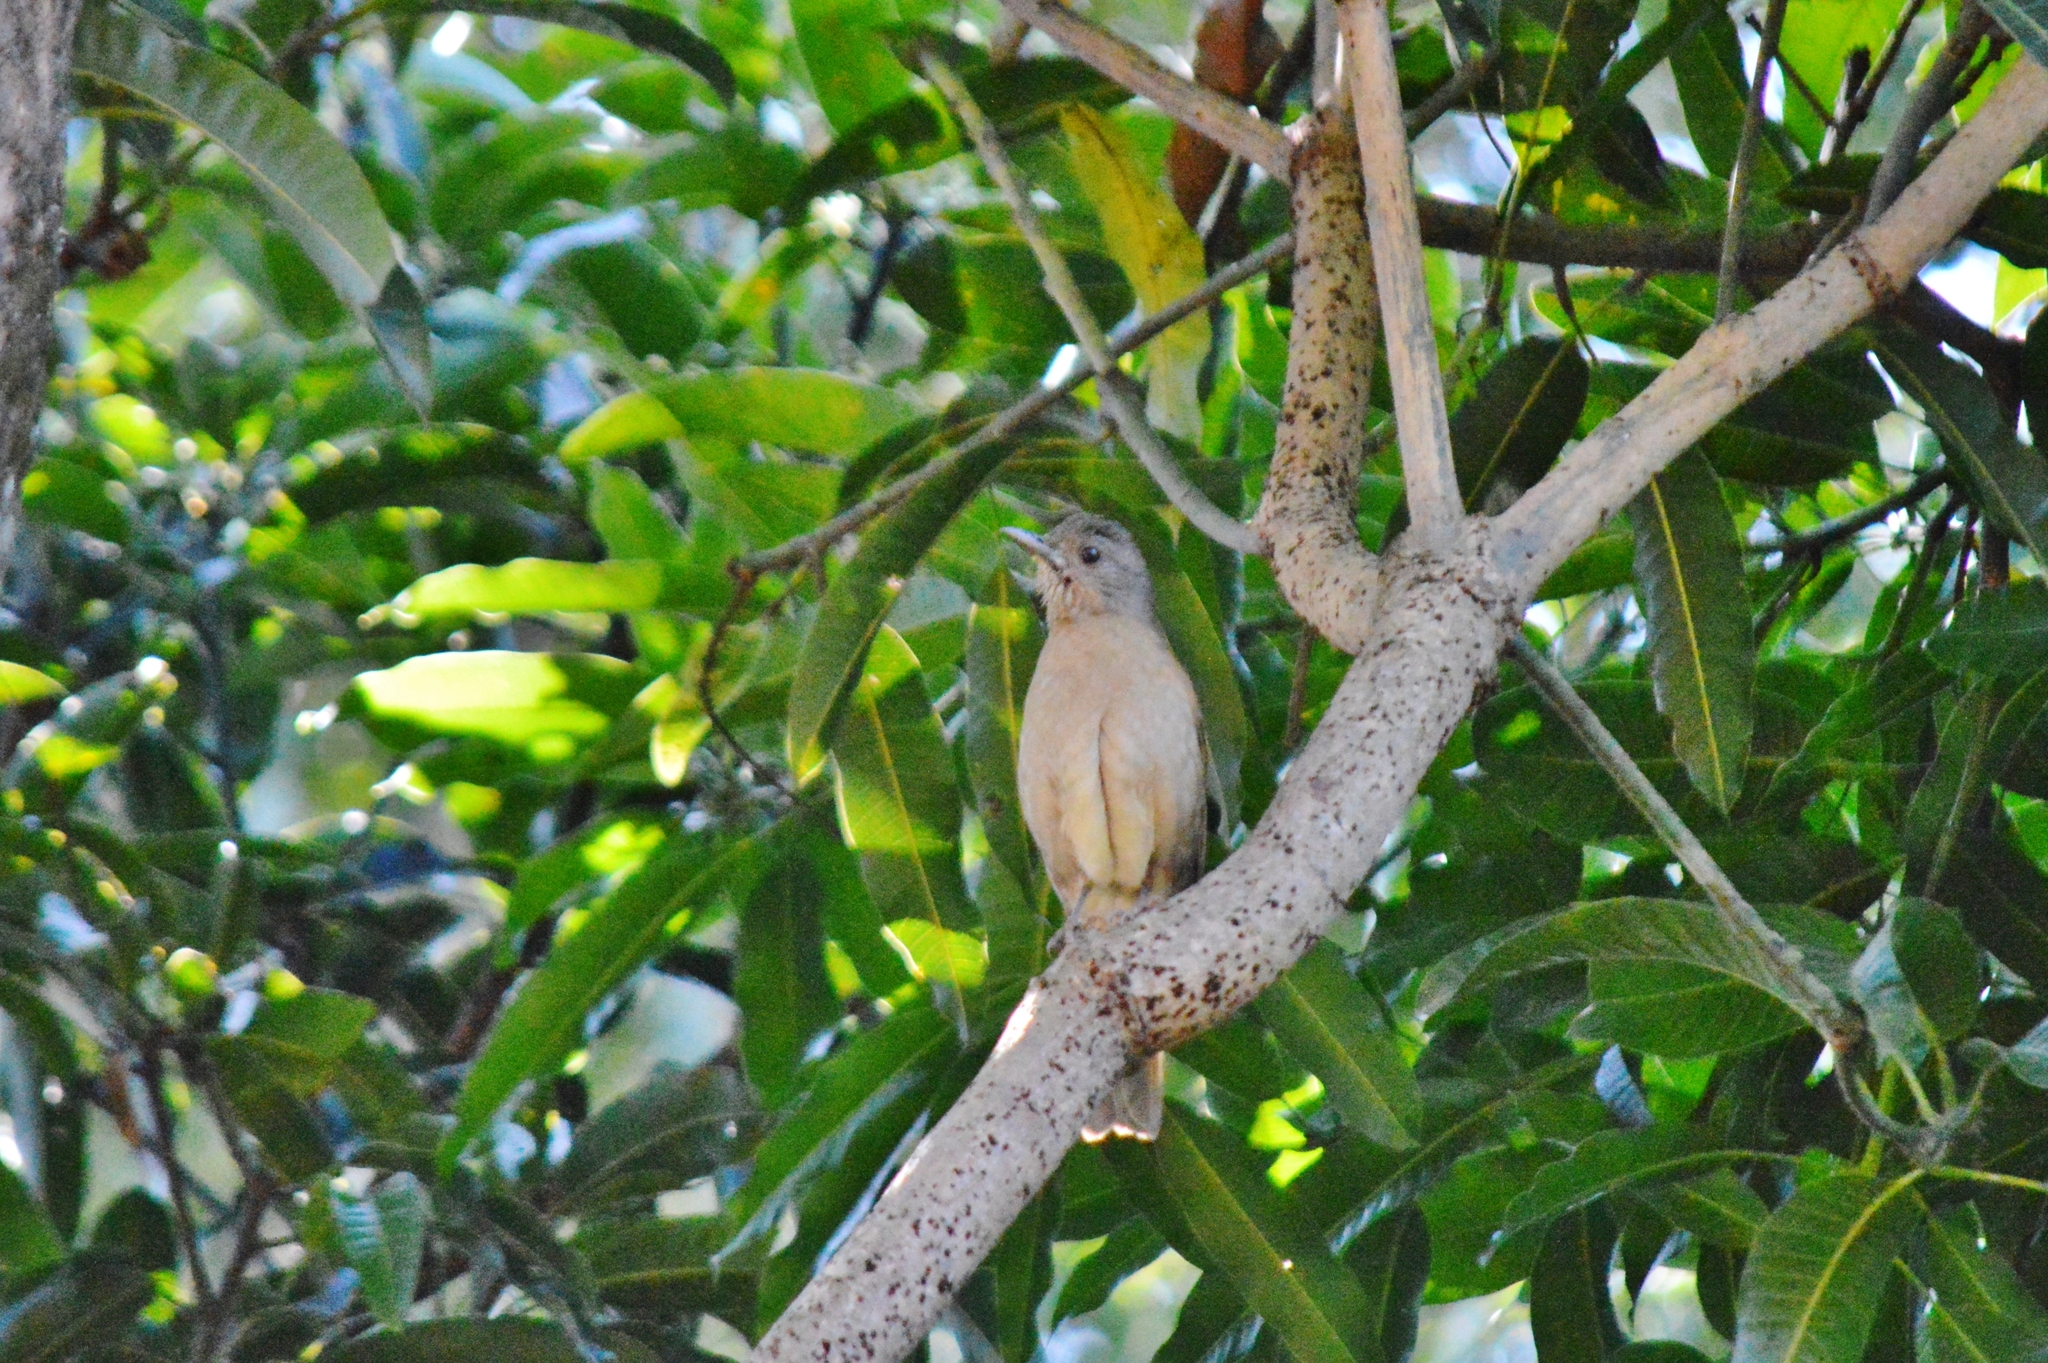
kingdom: Animalia
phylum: Chordata
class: Aves
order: Passeriformes
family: Turdidae
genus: Turdus
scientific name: Turdus leucomelas
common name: Pale-breasted thrush
